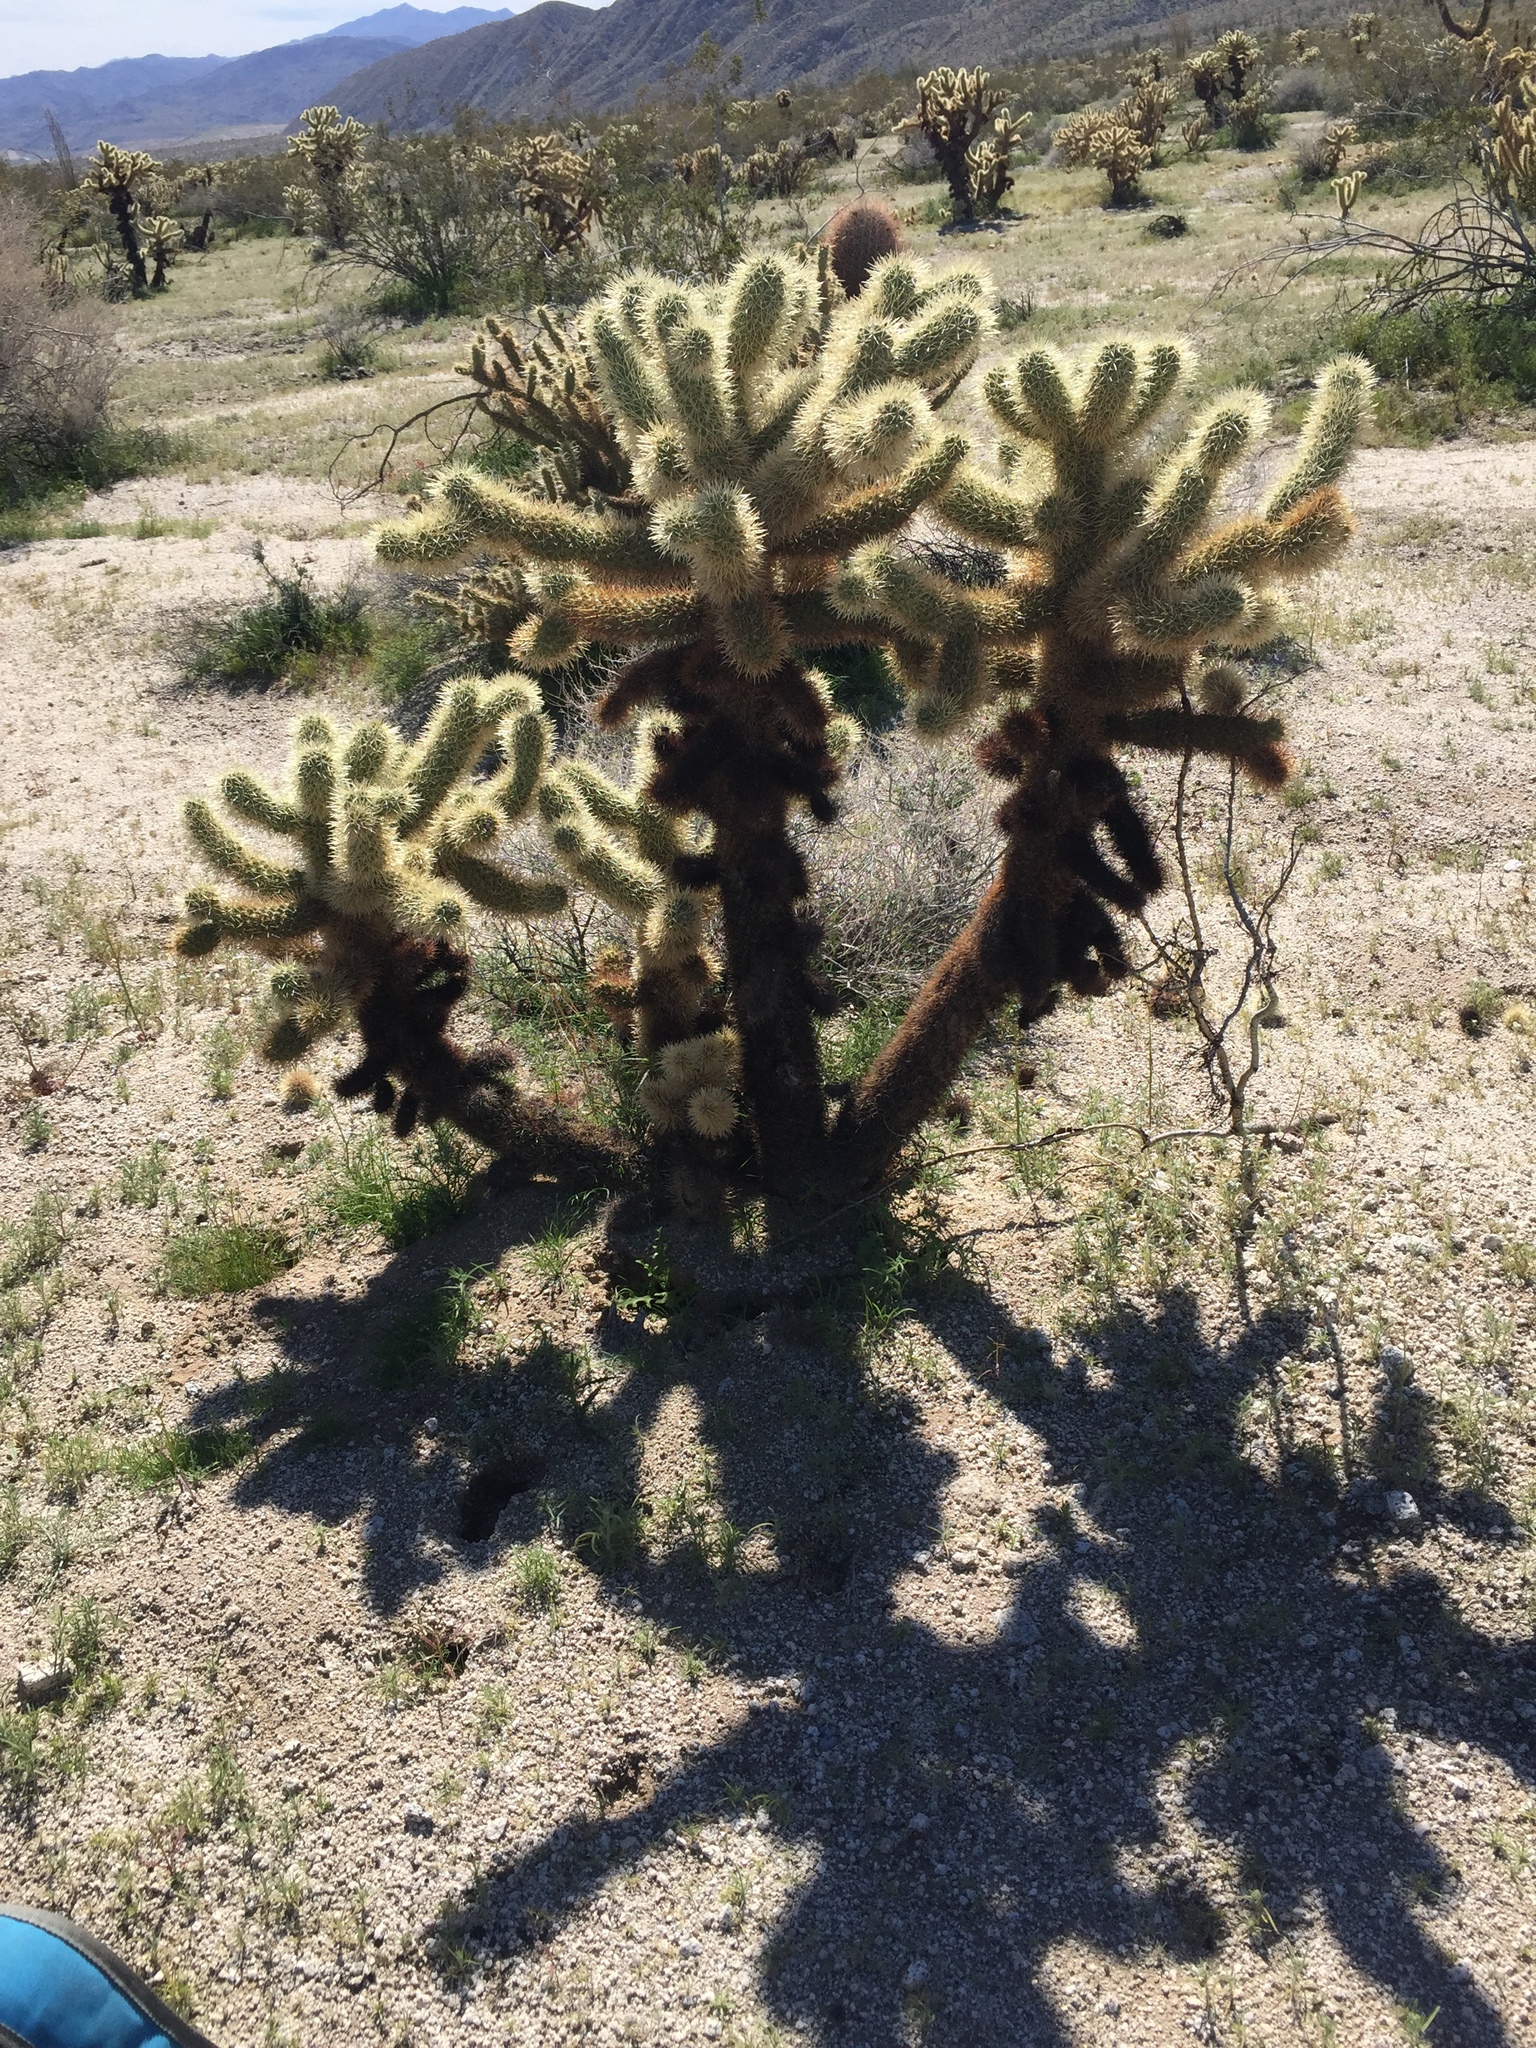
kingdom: Plantae
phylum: Tracheophyta
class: Magnoliopsida
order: Caryophyllales
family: Cactaceae
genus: Cylindropuntia
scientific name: Cylindropuntia fosbergii
